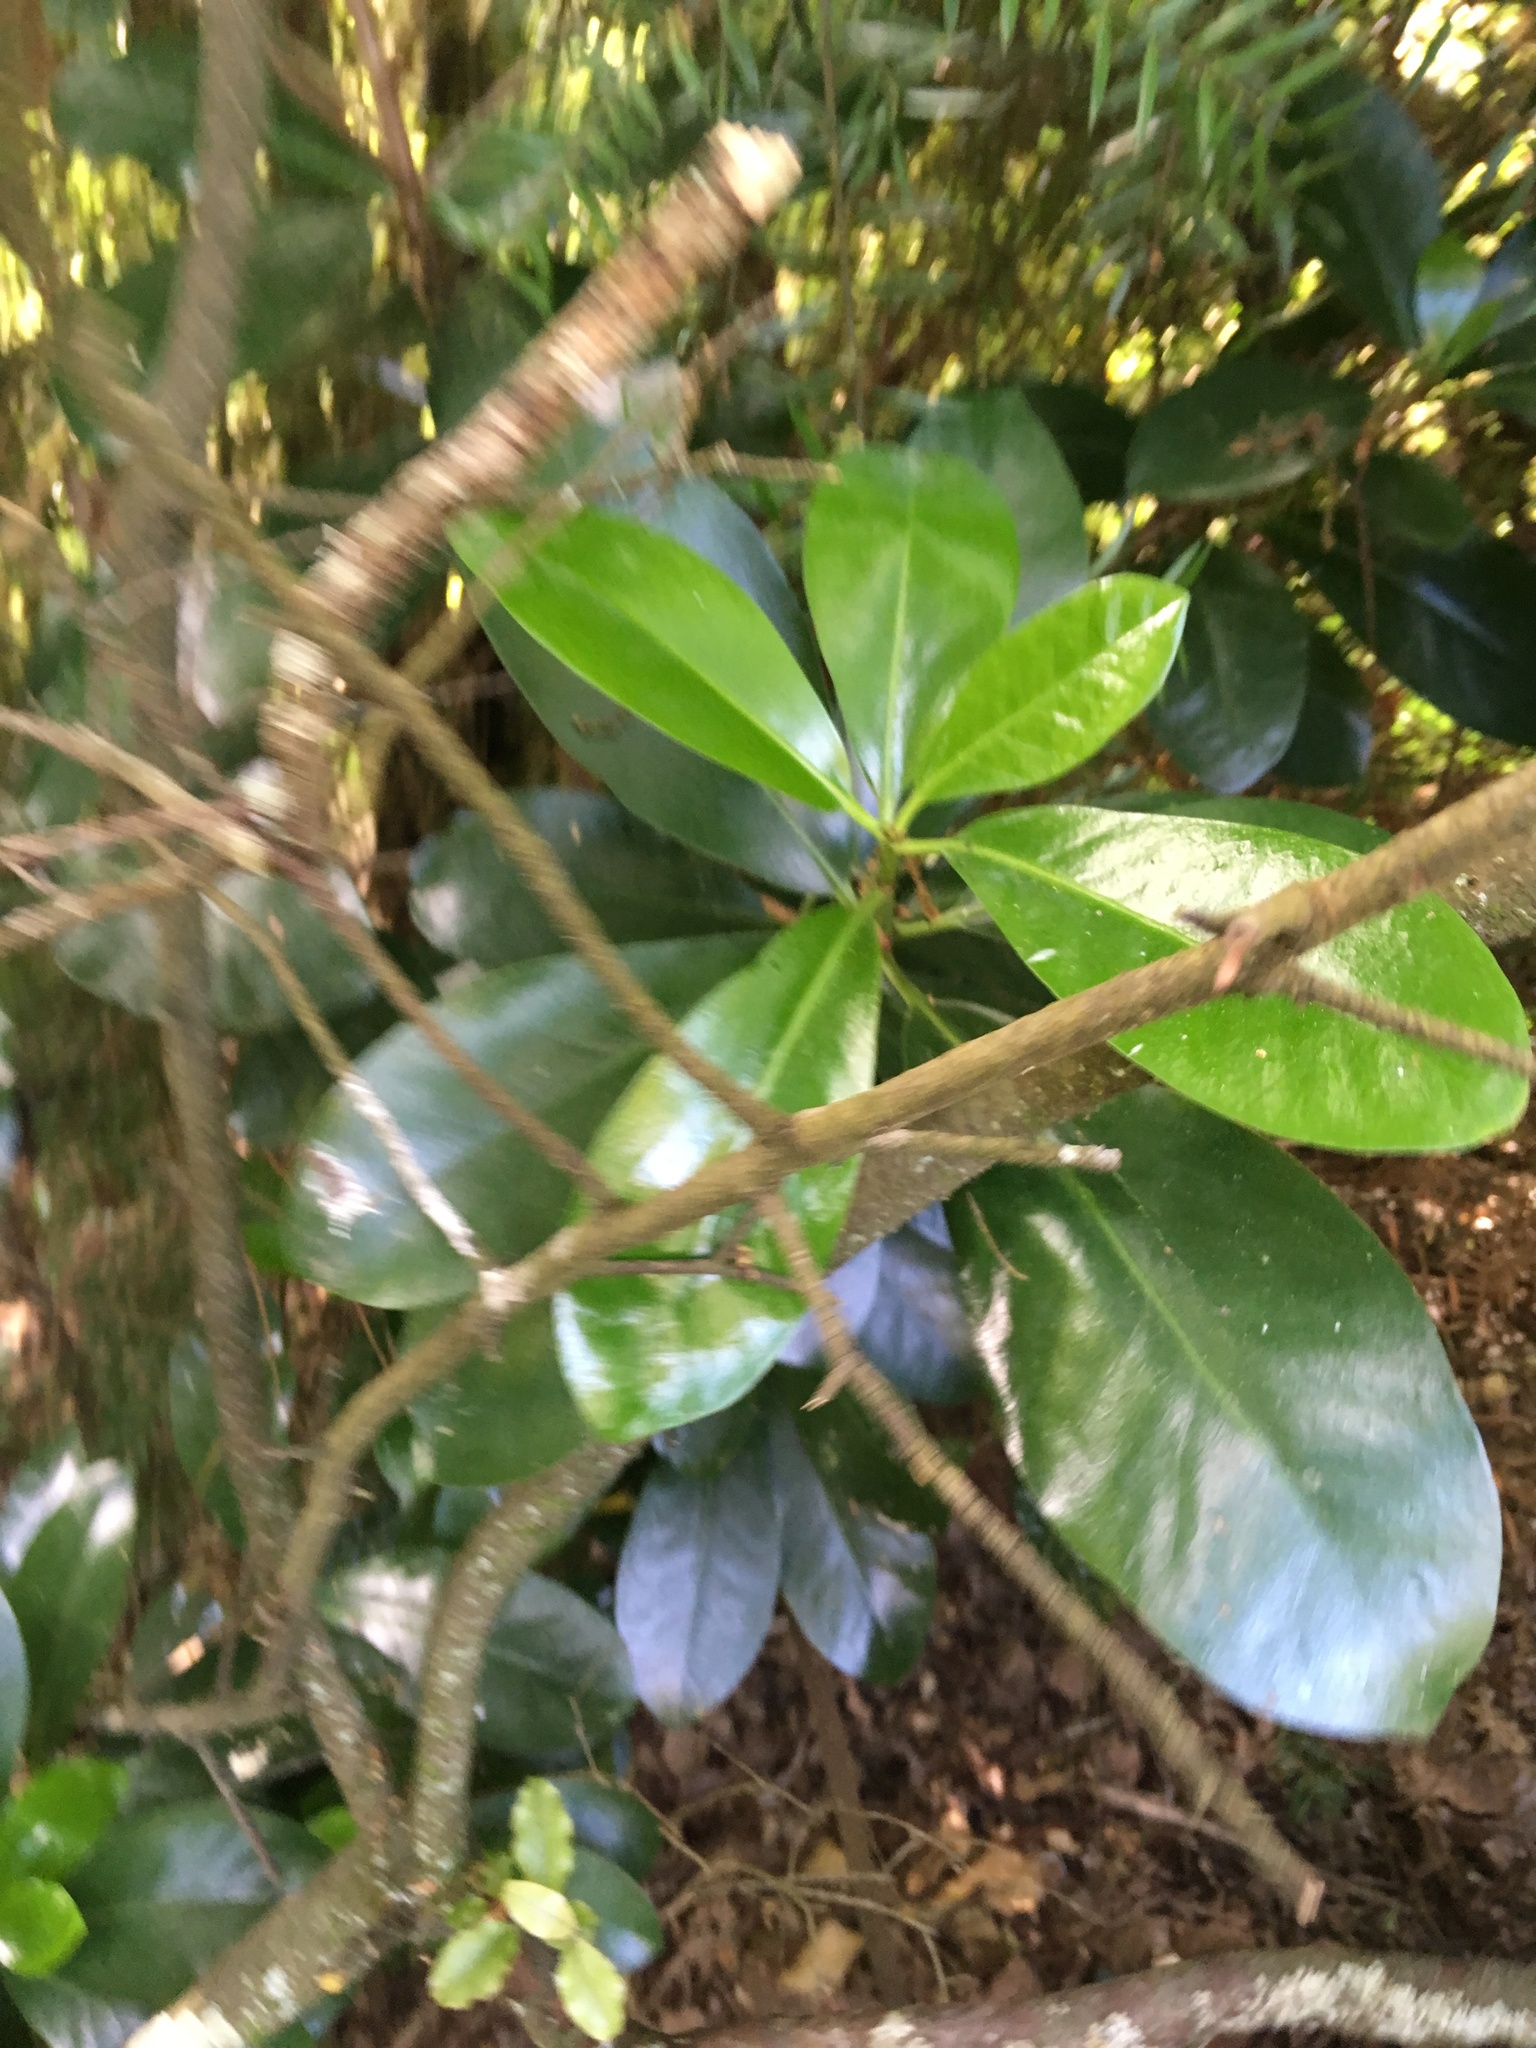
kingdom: Plantae
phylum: Tracheophyta
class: Magnoliopsida
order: Cucurbitales
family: Corynocarpaceae
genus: Corynocarpus
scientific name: Corynocarpus laevigatus
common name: New zealand laurel
